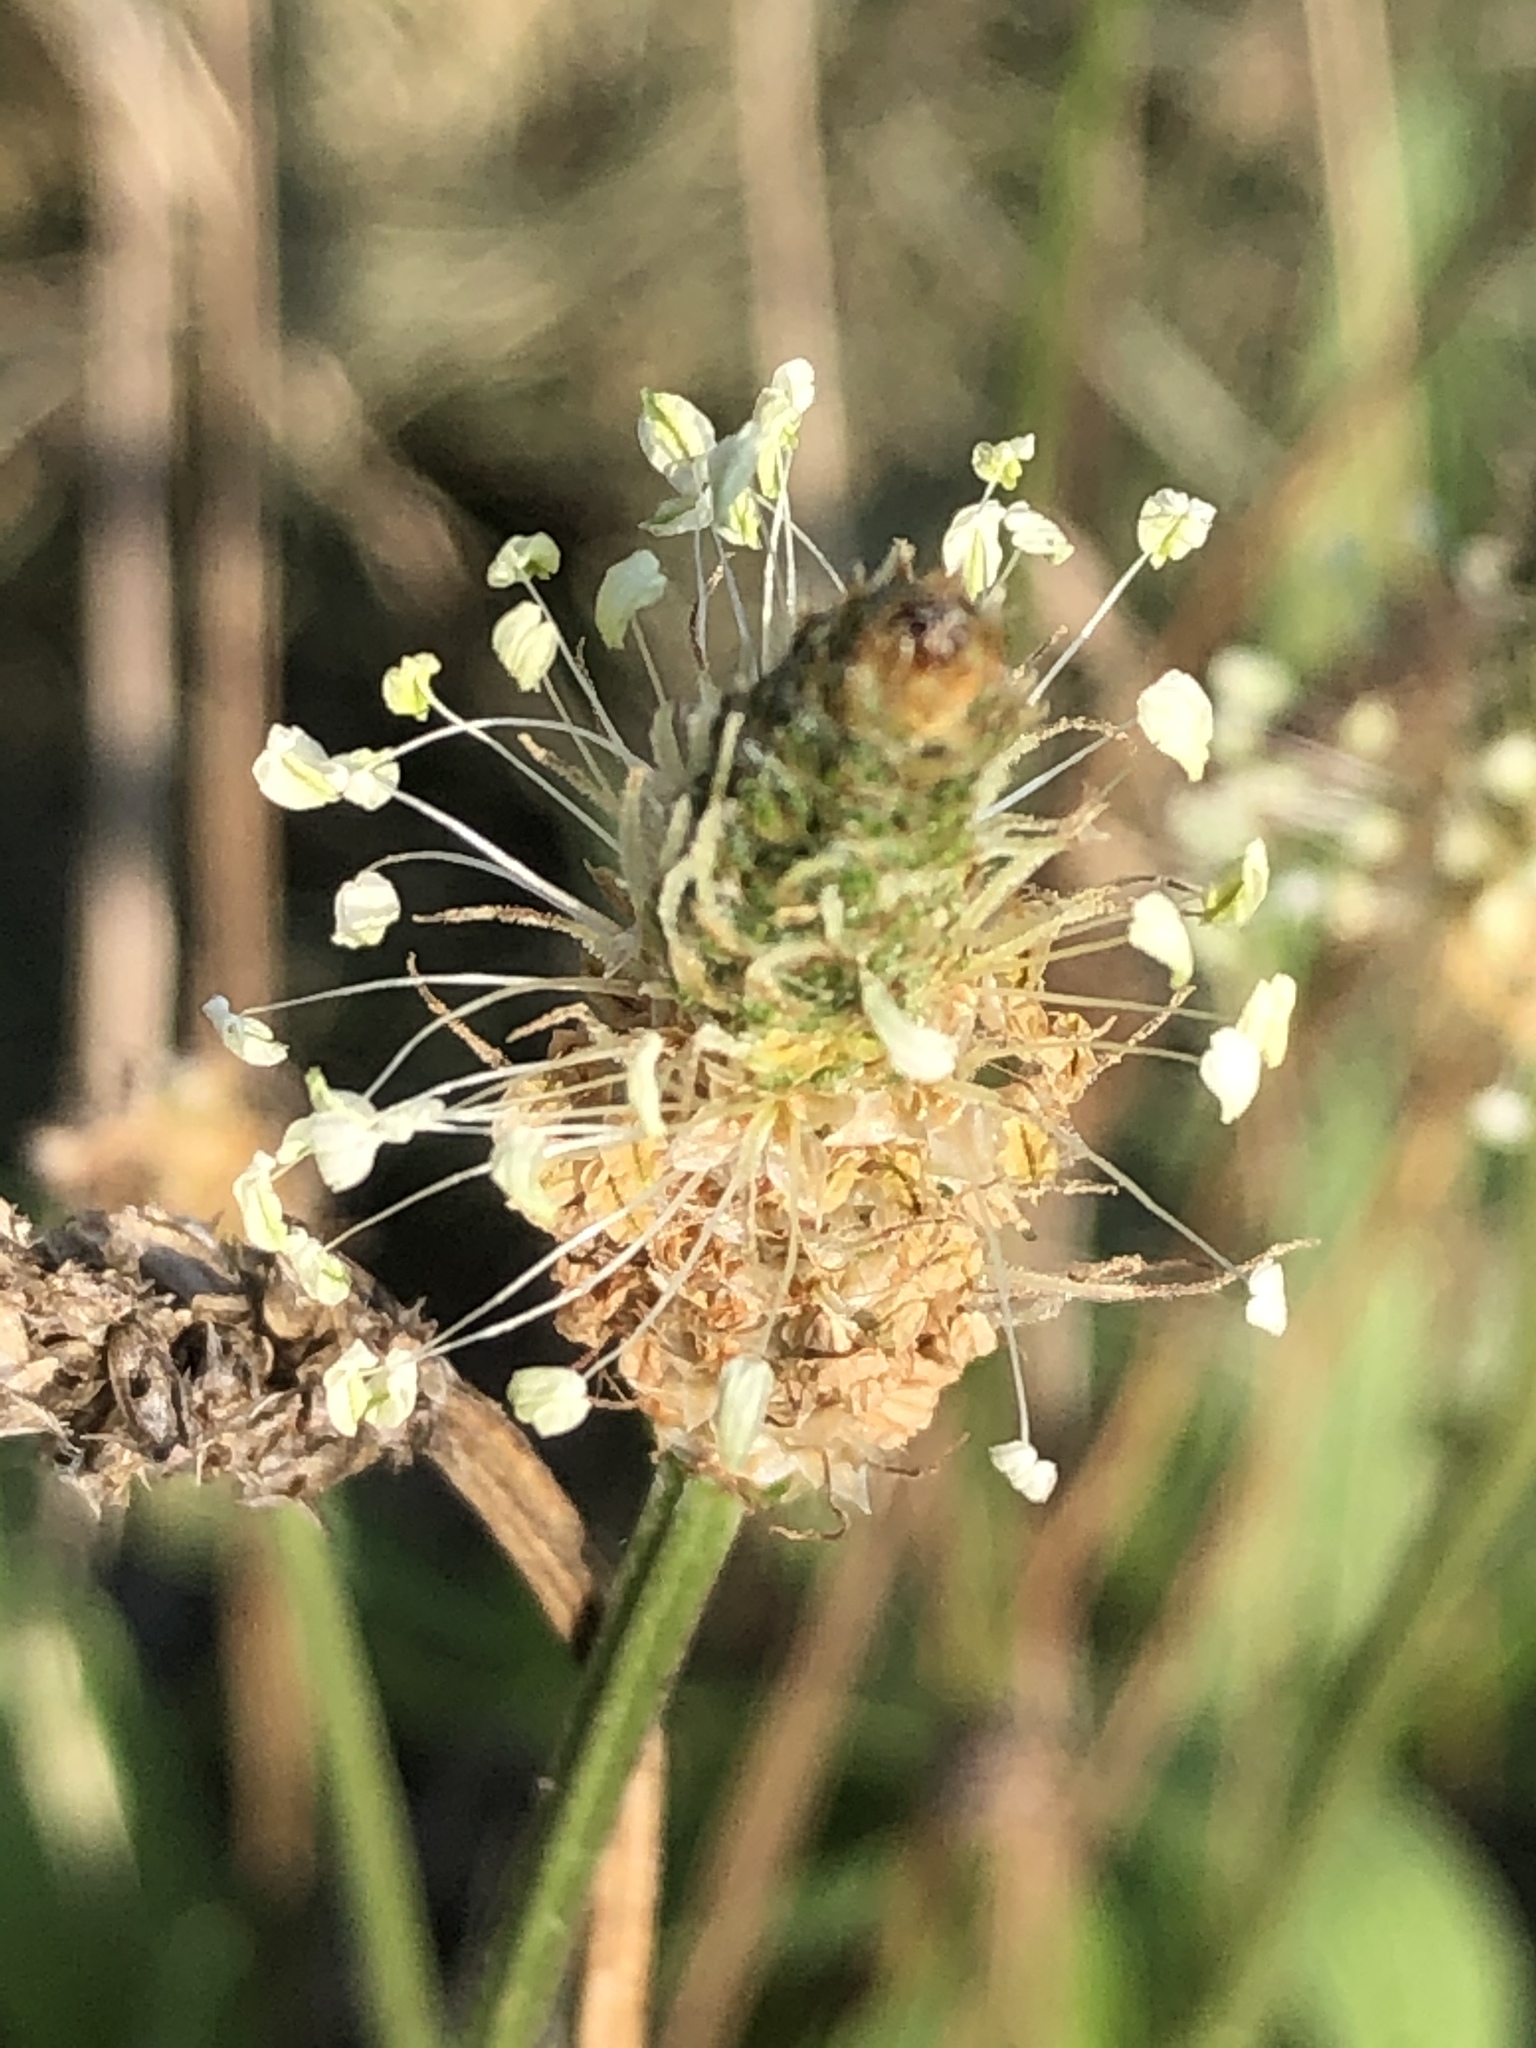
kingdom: Plantae
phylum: Tracheophyta
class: Magnoliopsida
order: Lamiales
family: Plantaginaceae
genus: Plantago
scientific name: Plantago lanceolata
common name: Ribwort plantain
